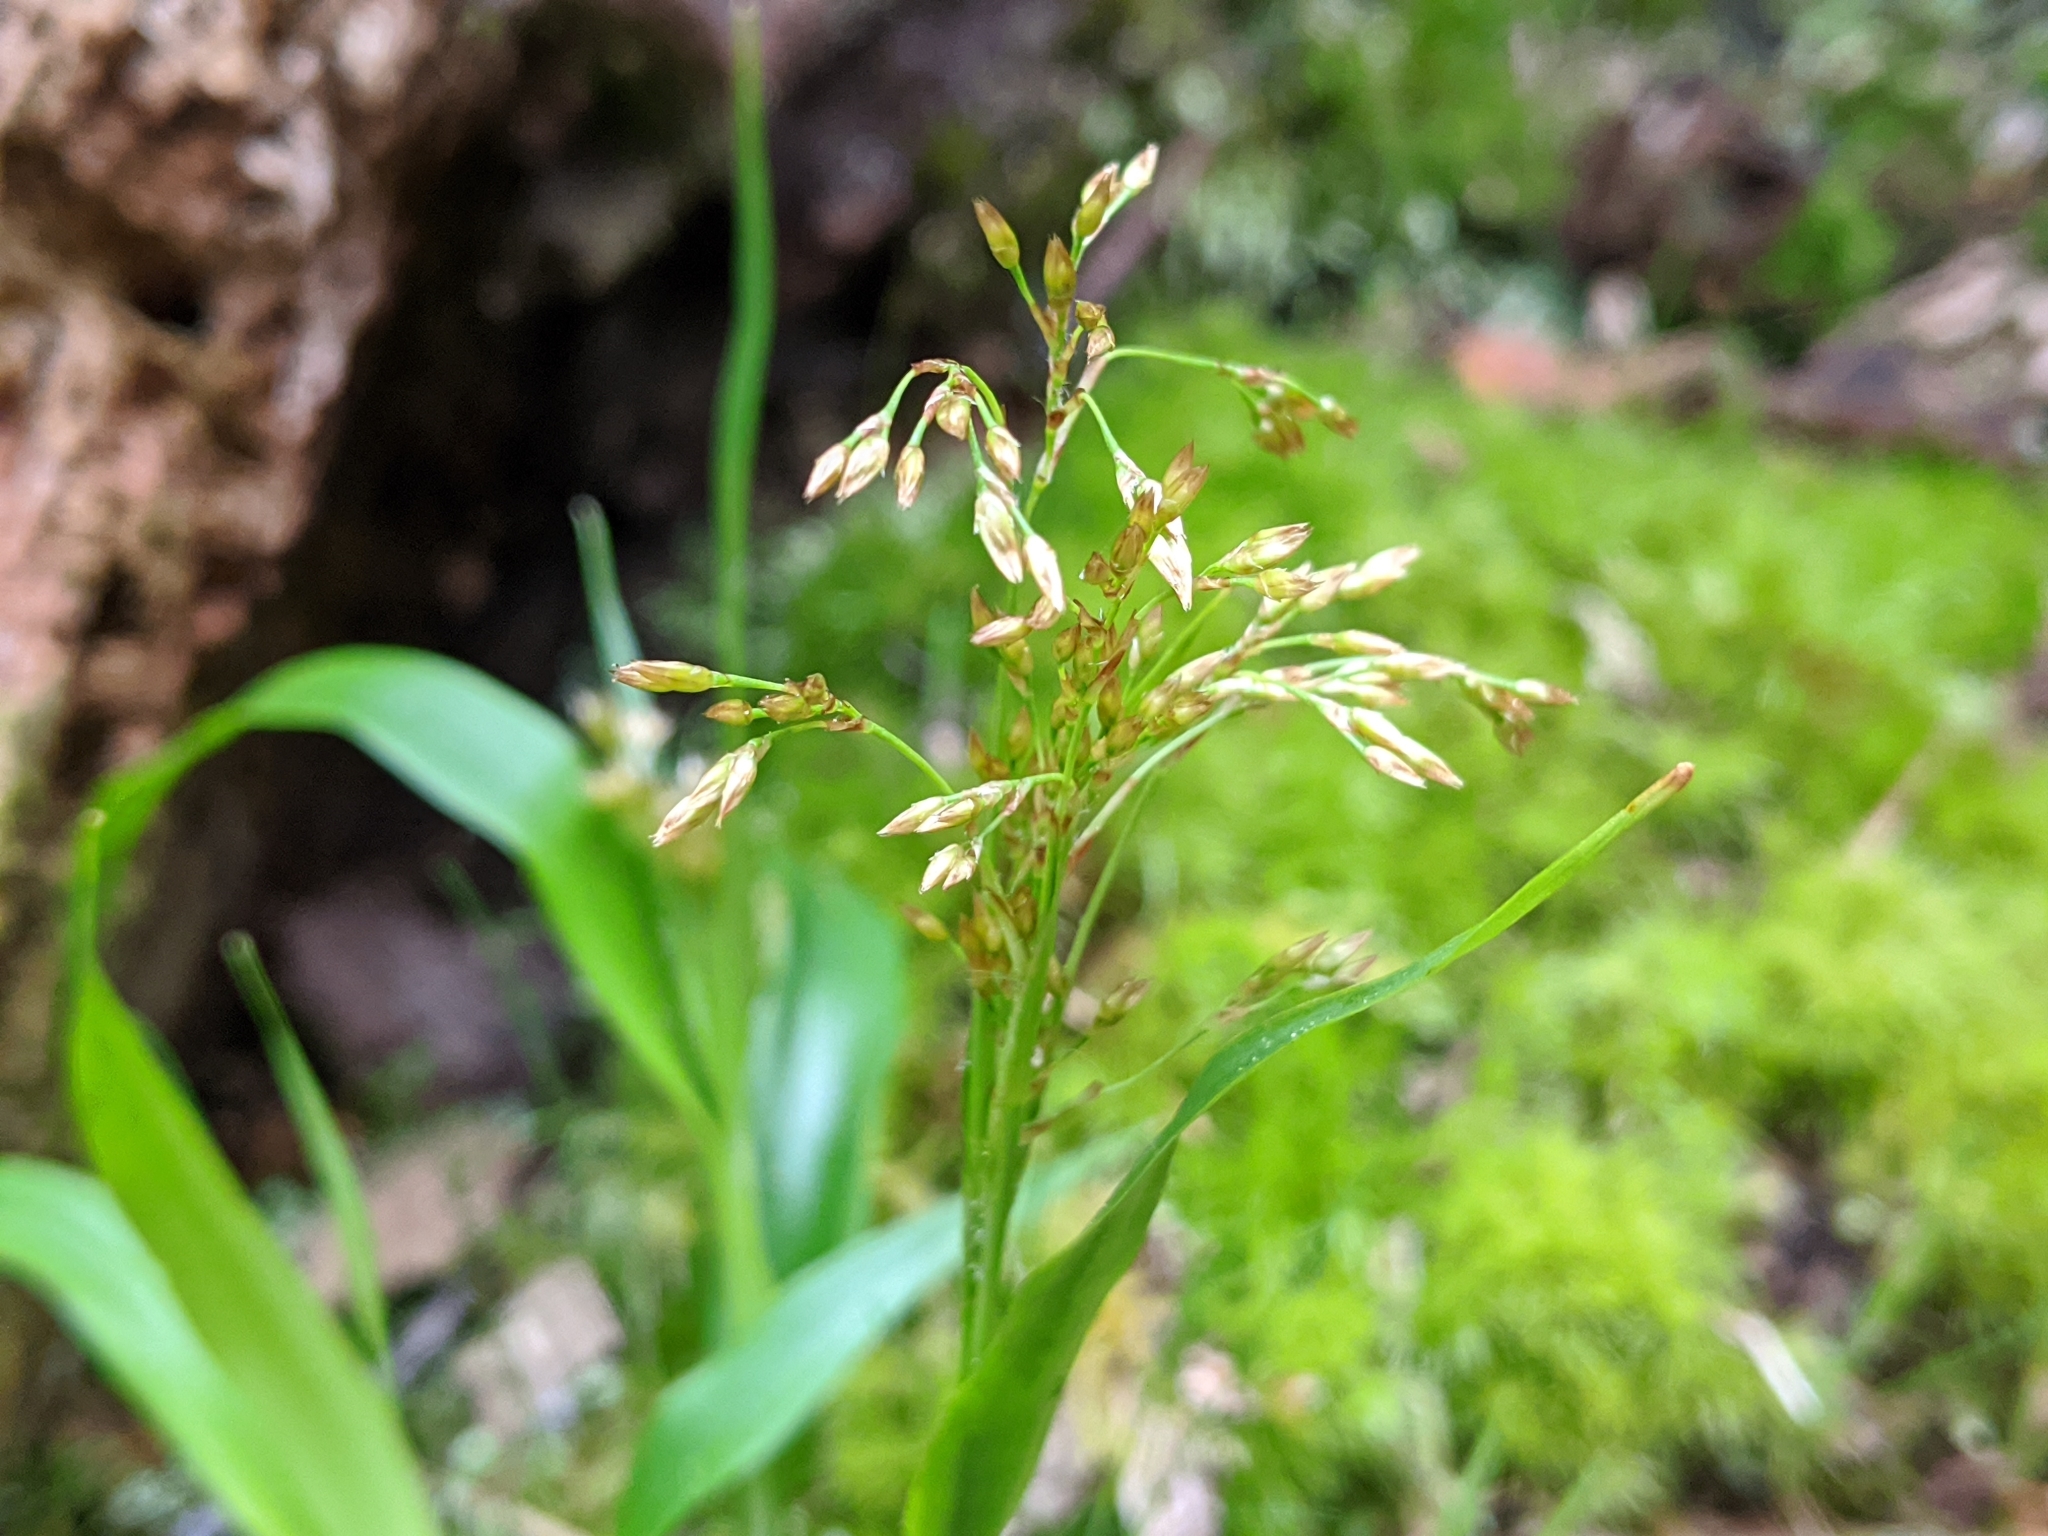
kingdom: Plantae
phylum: Tracheophyta
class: Liliopsida
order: Poales
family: Juncaceae
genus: Luzula
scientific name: Luzula parviflora
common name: Millet woodrush
